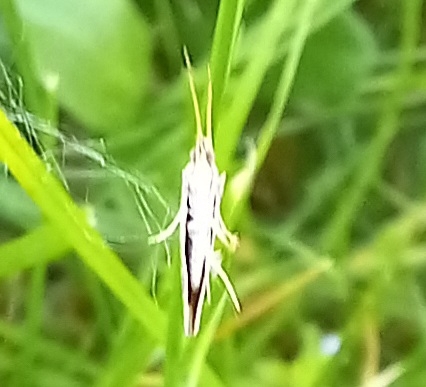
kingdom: Animalia
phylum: Arthropoda
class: Insecta
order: Lepidoptera
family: Plutellidae
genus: Plutella
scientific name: Plutella xylostella
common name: Diamond-back moth
